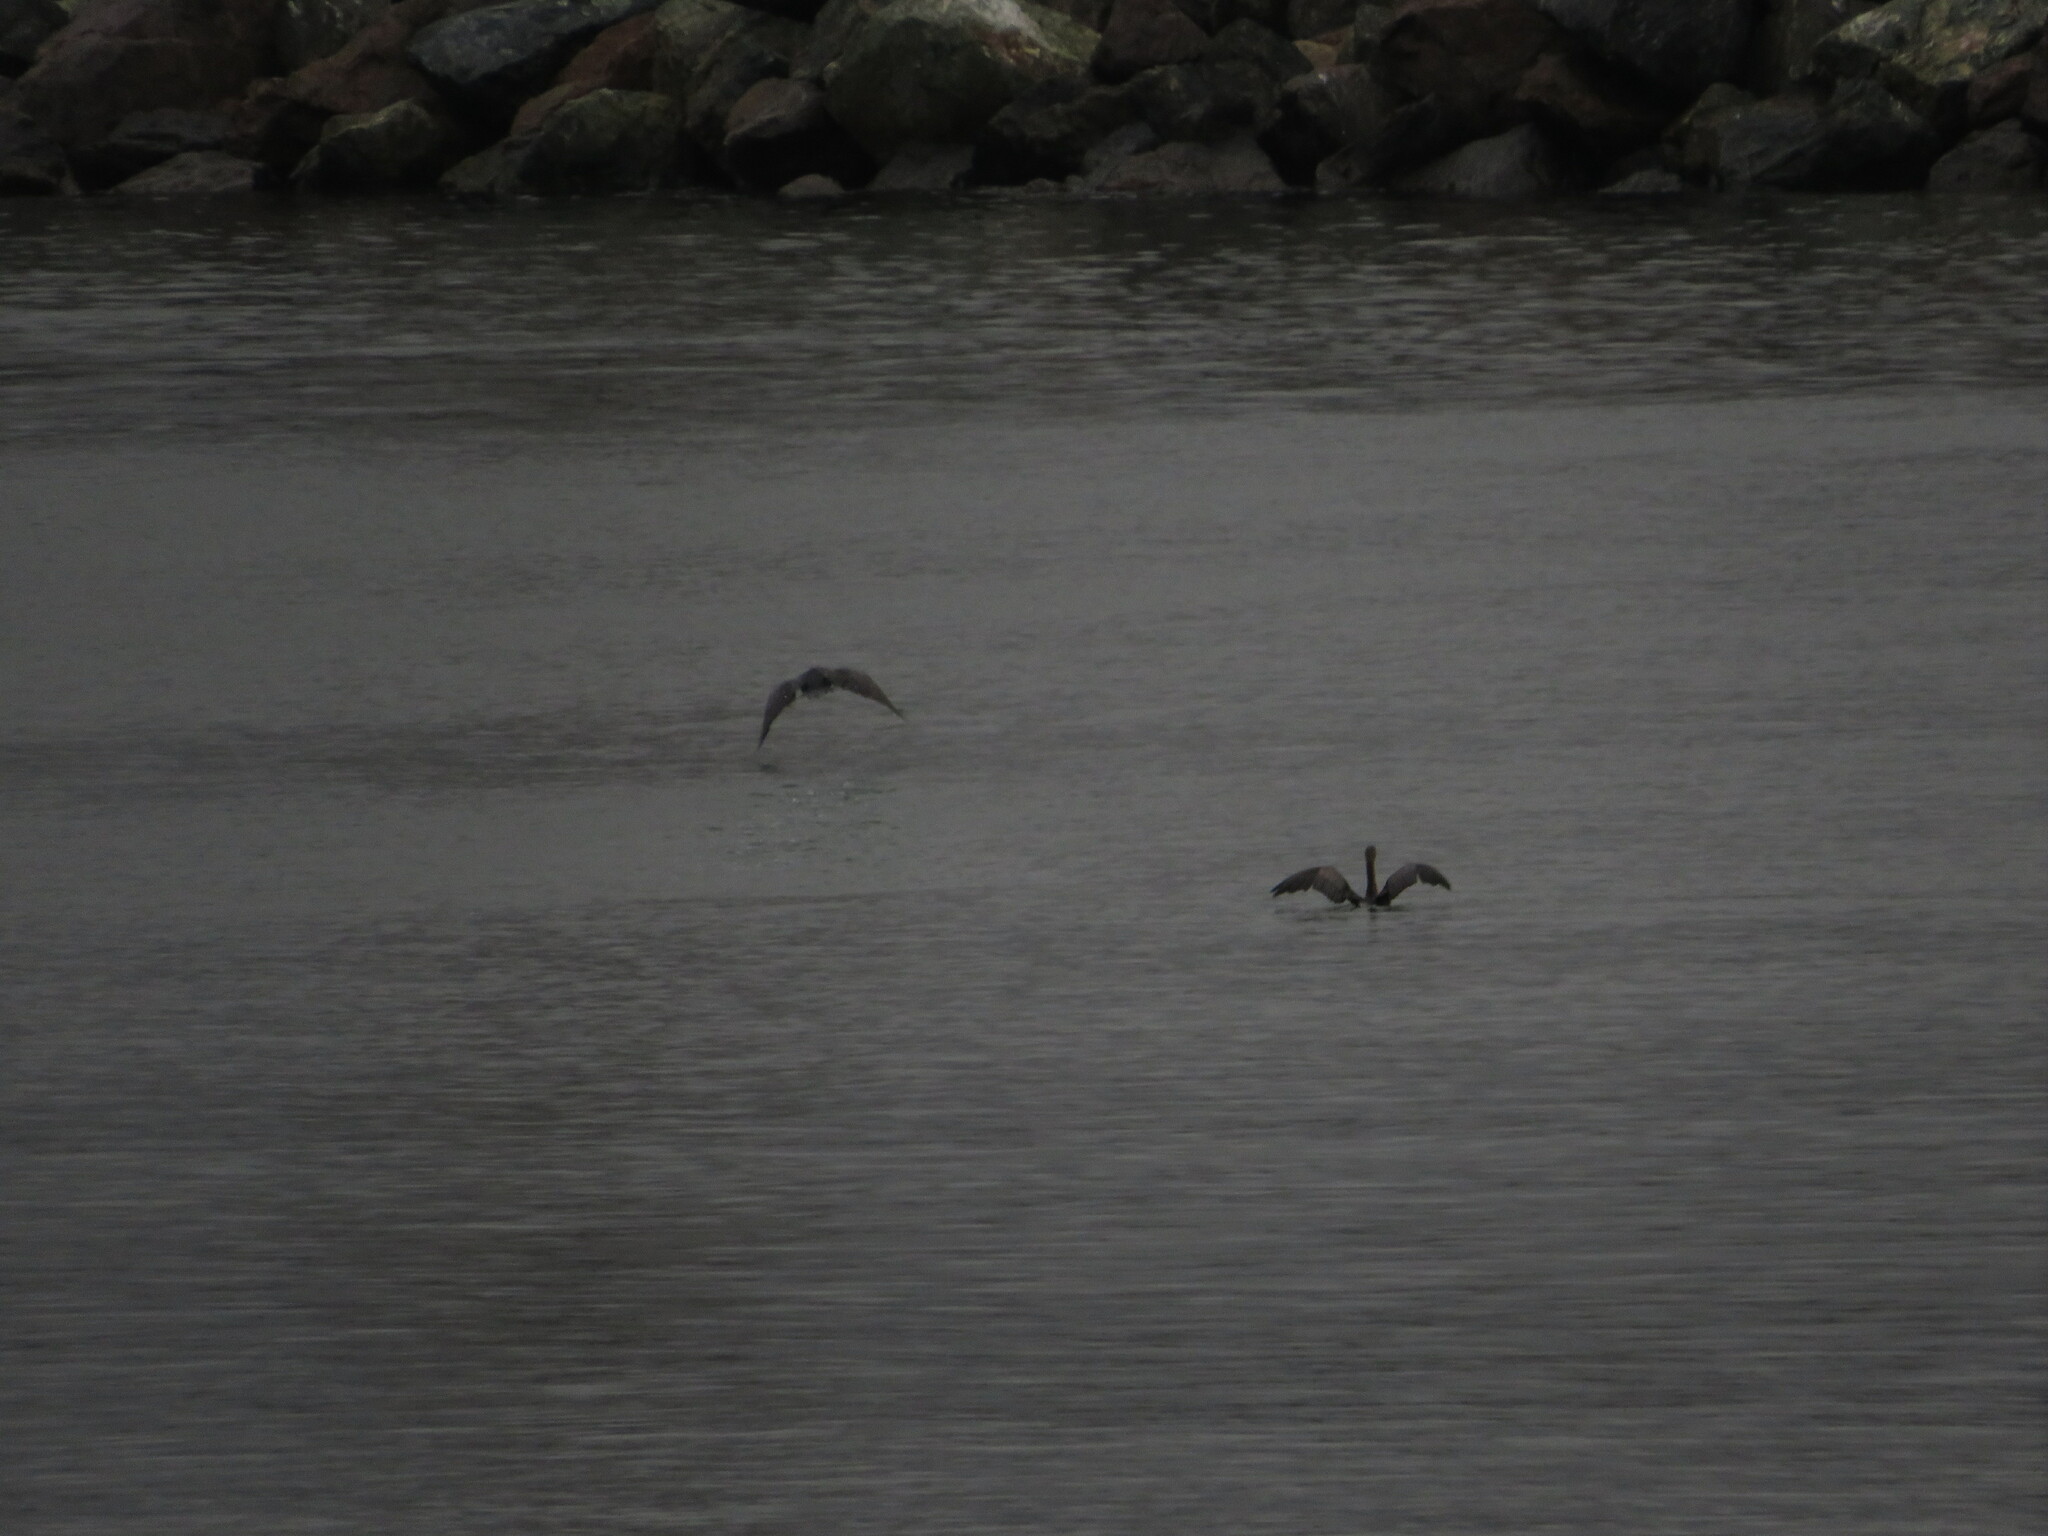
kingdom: Animalia
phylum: Chordata
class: Aves
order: Suliformes
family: Phalacrocoracidae
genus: Phalacrocorax
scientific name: Phalacrocorax auritus
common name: Double-crested cormorant
